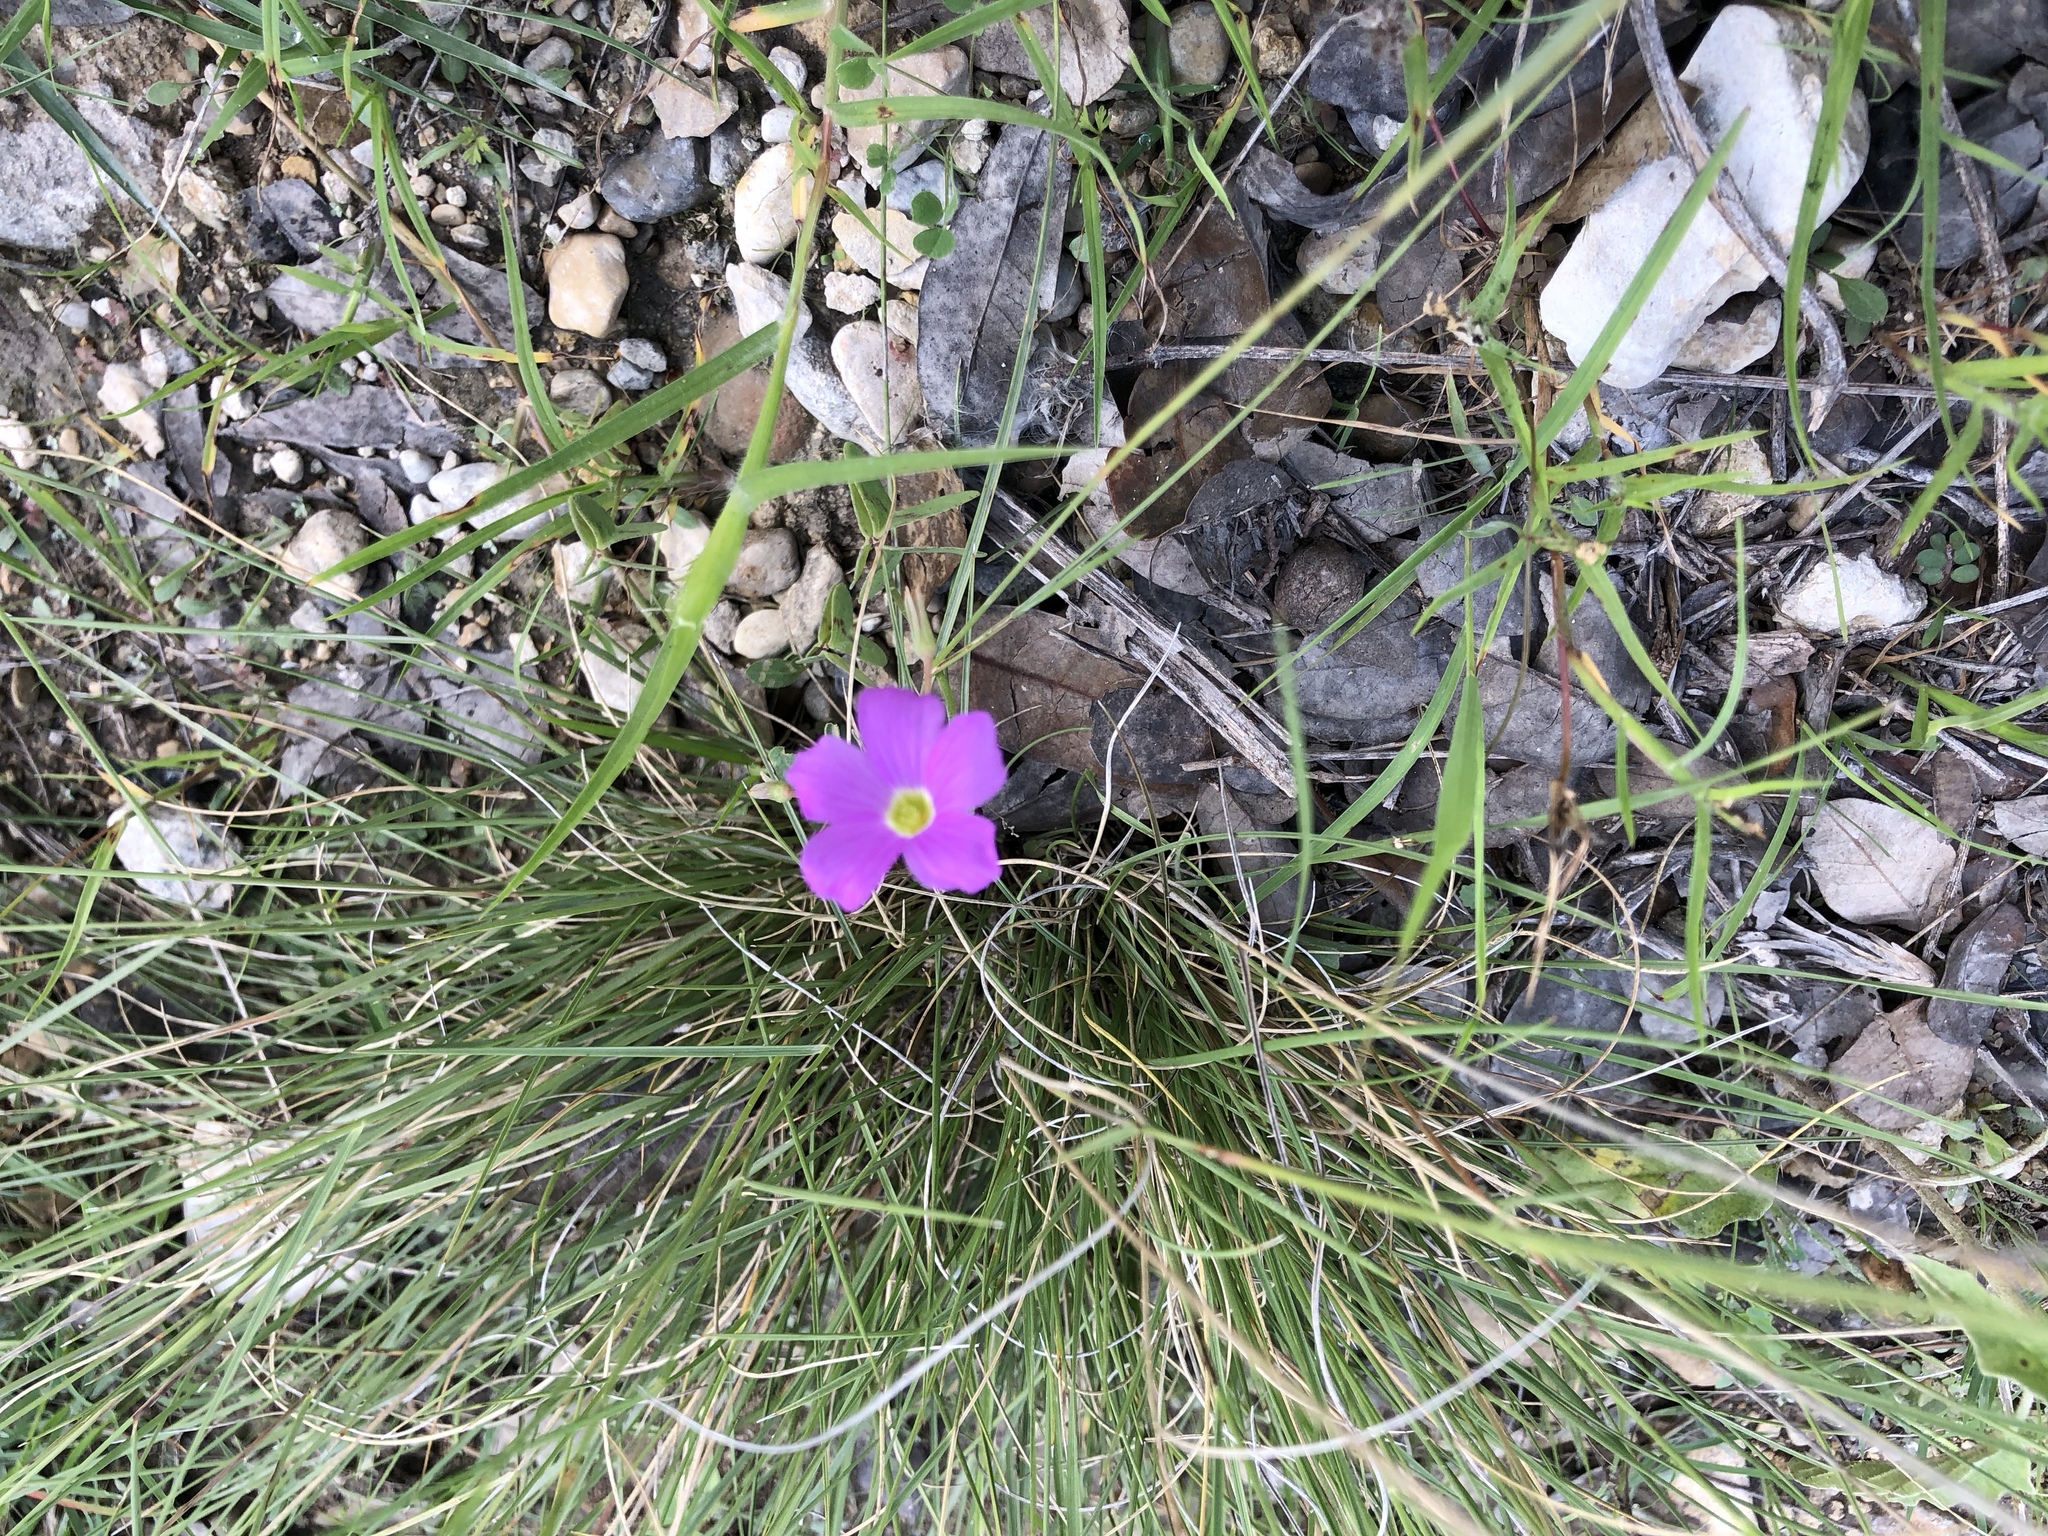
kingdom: Plantae
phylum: Tracheophyta
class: Magnoliopsida
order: Oxalidales
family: Oxalidaceae
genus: Oxalis
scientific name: Oxalis drummondii
